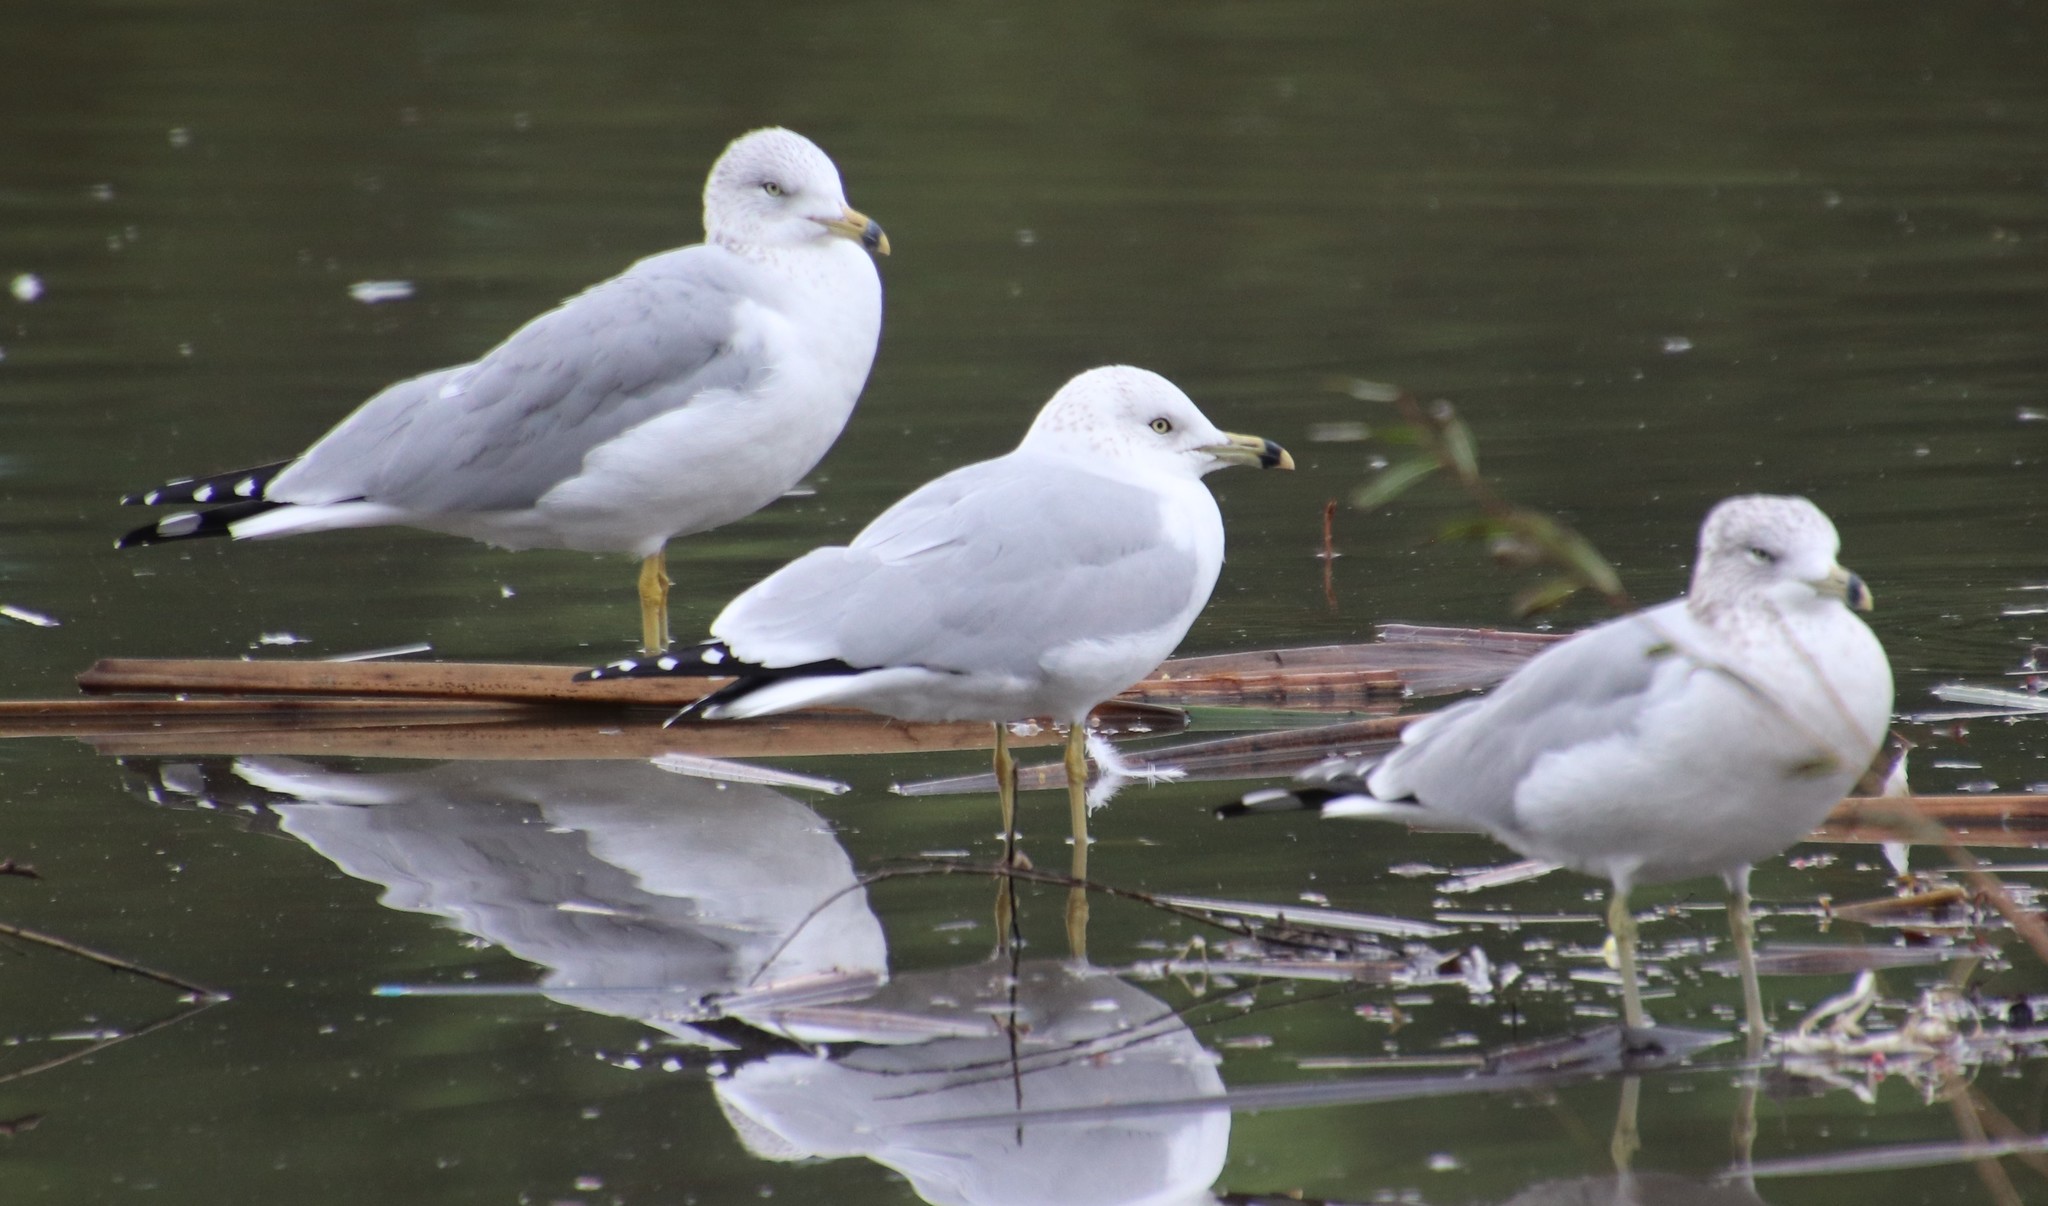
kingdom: Animalia
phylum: Chordata
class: Aves
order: Charadriiformes
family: Laridae
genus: Larus
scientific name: Larus delawarensis
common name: Ring-billed gull
